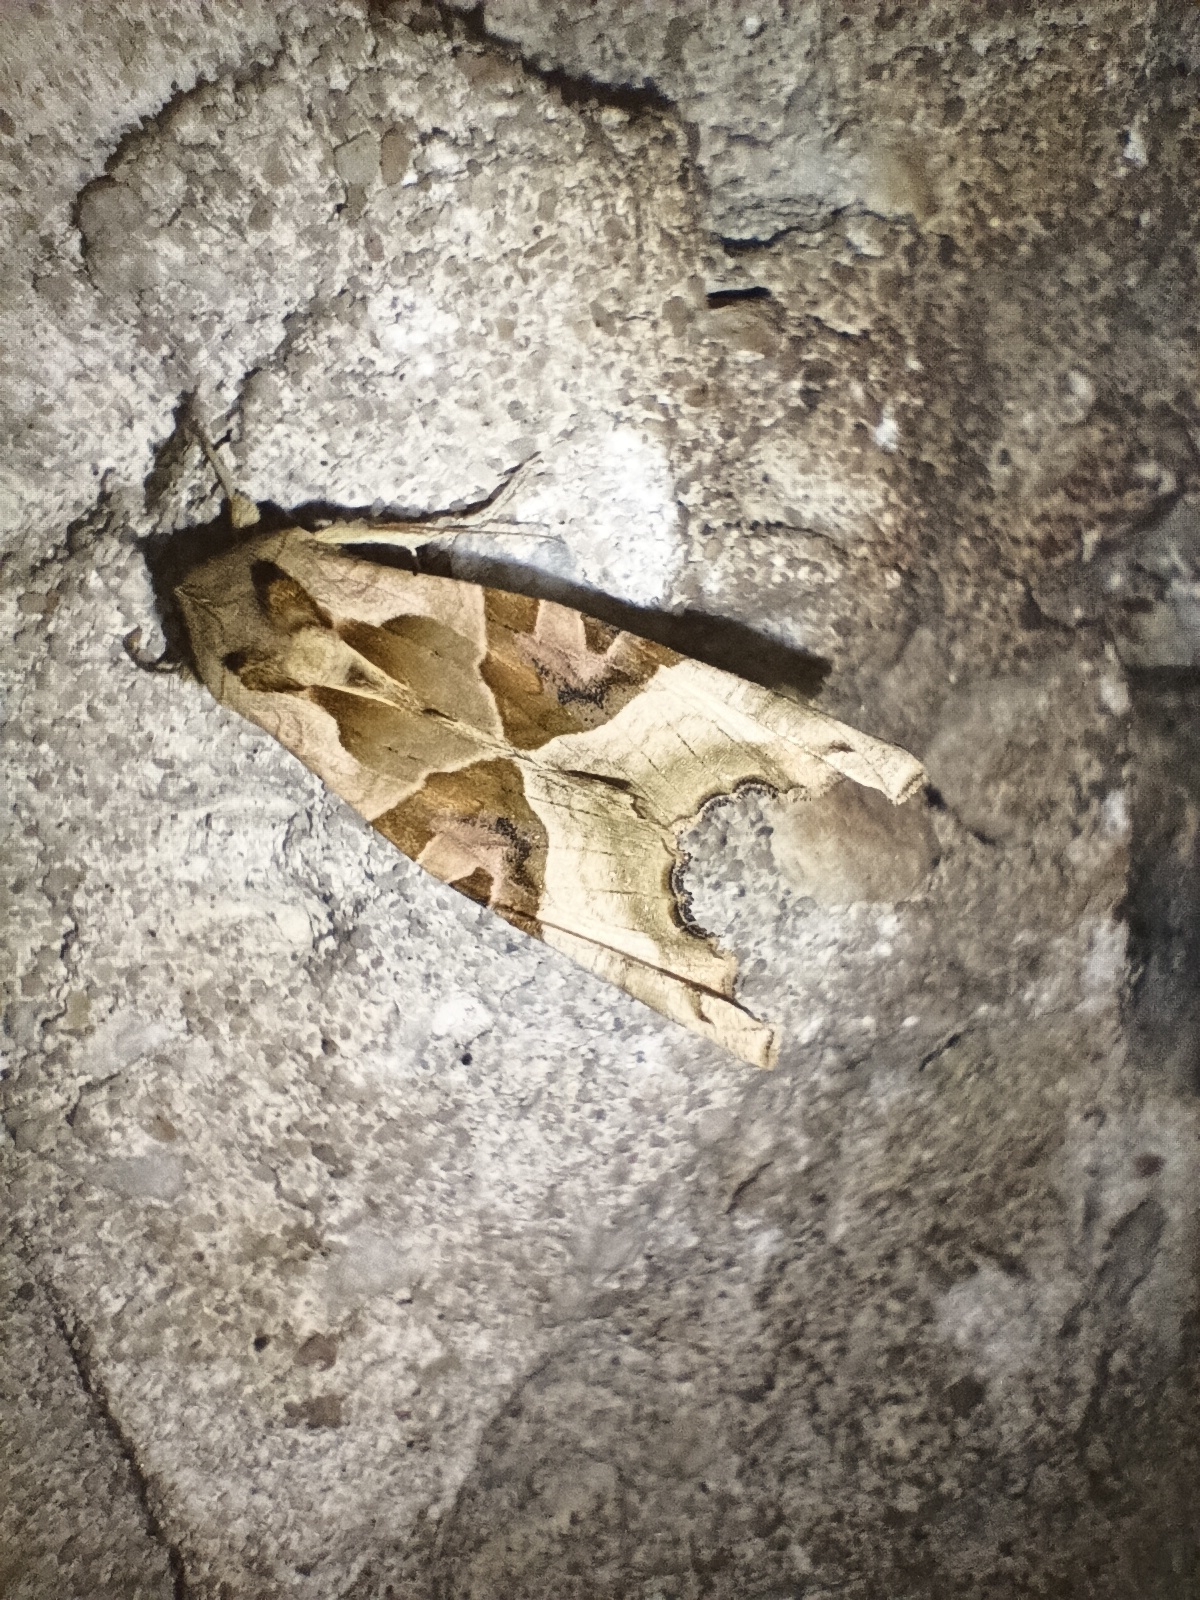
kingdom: Animalia
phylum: Arthropoda
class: Insecta
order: Lepidoptera
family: Noctuidae
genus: Phlogophora
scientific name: Phlogophora meticulosa
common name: Angle shades
